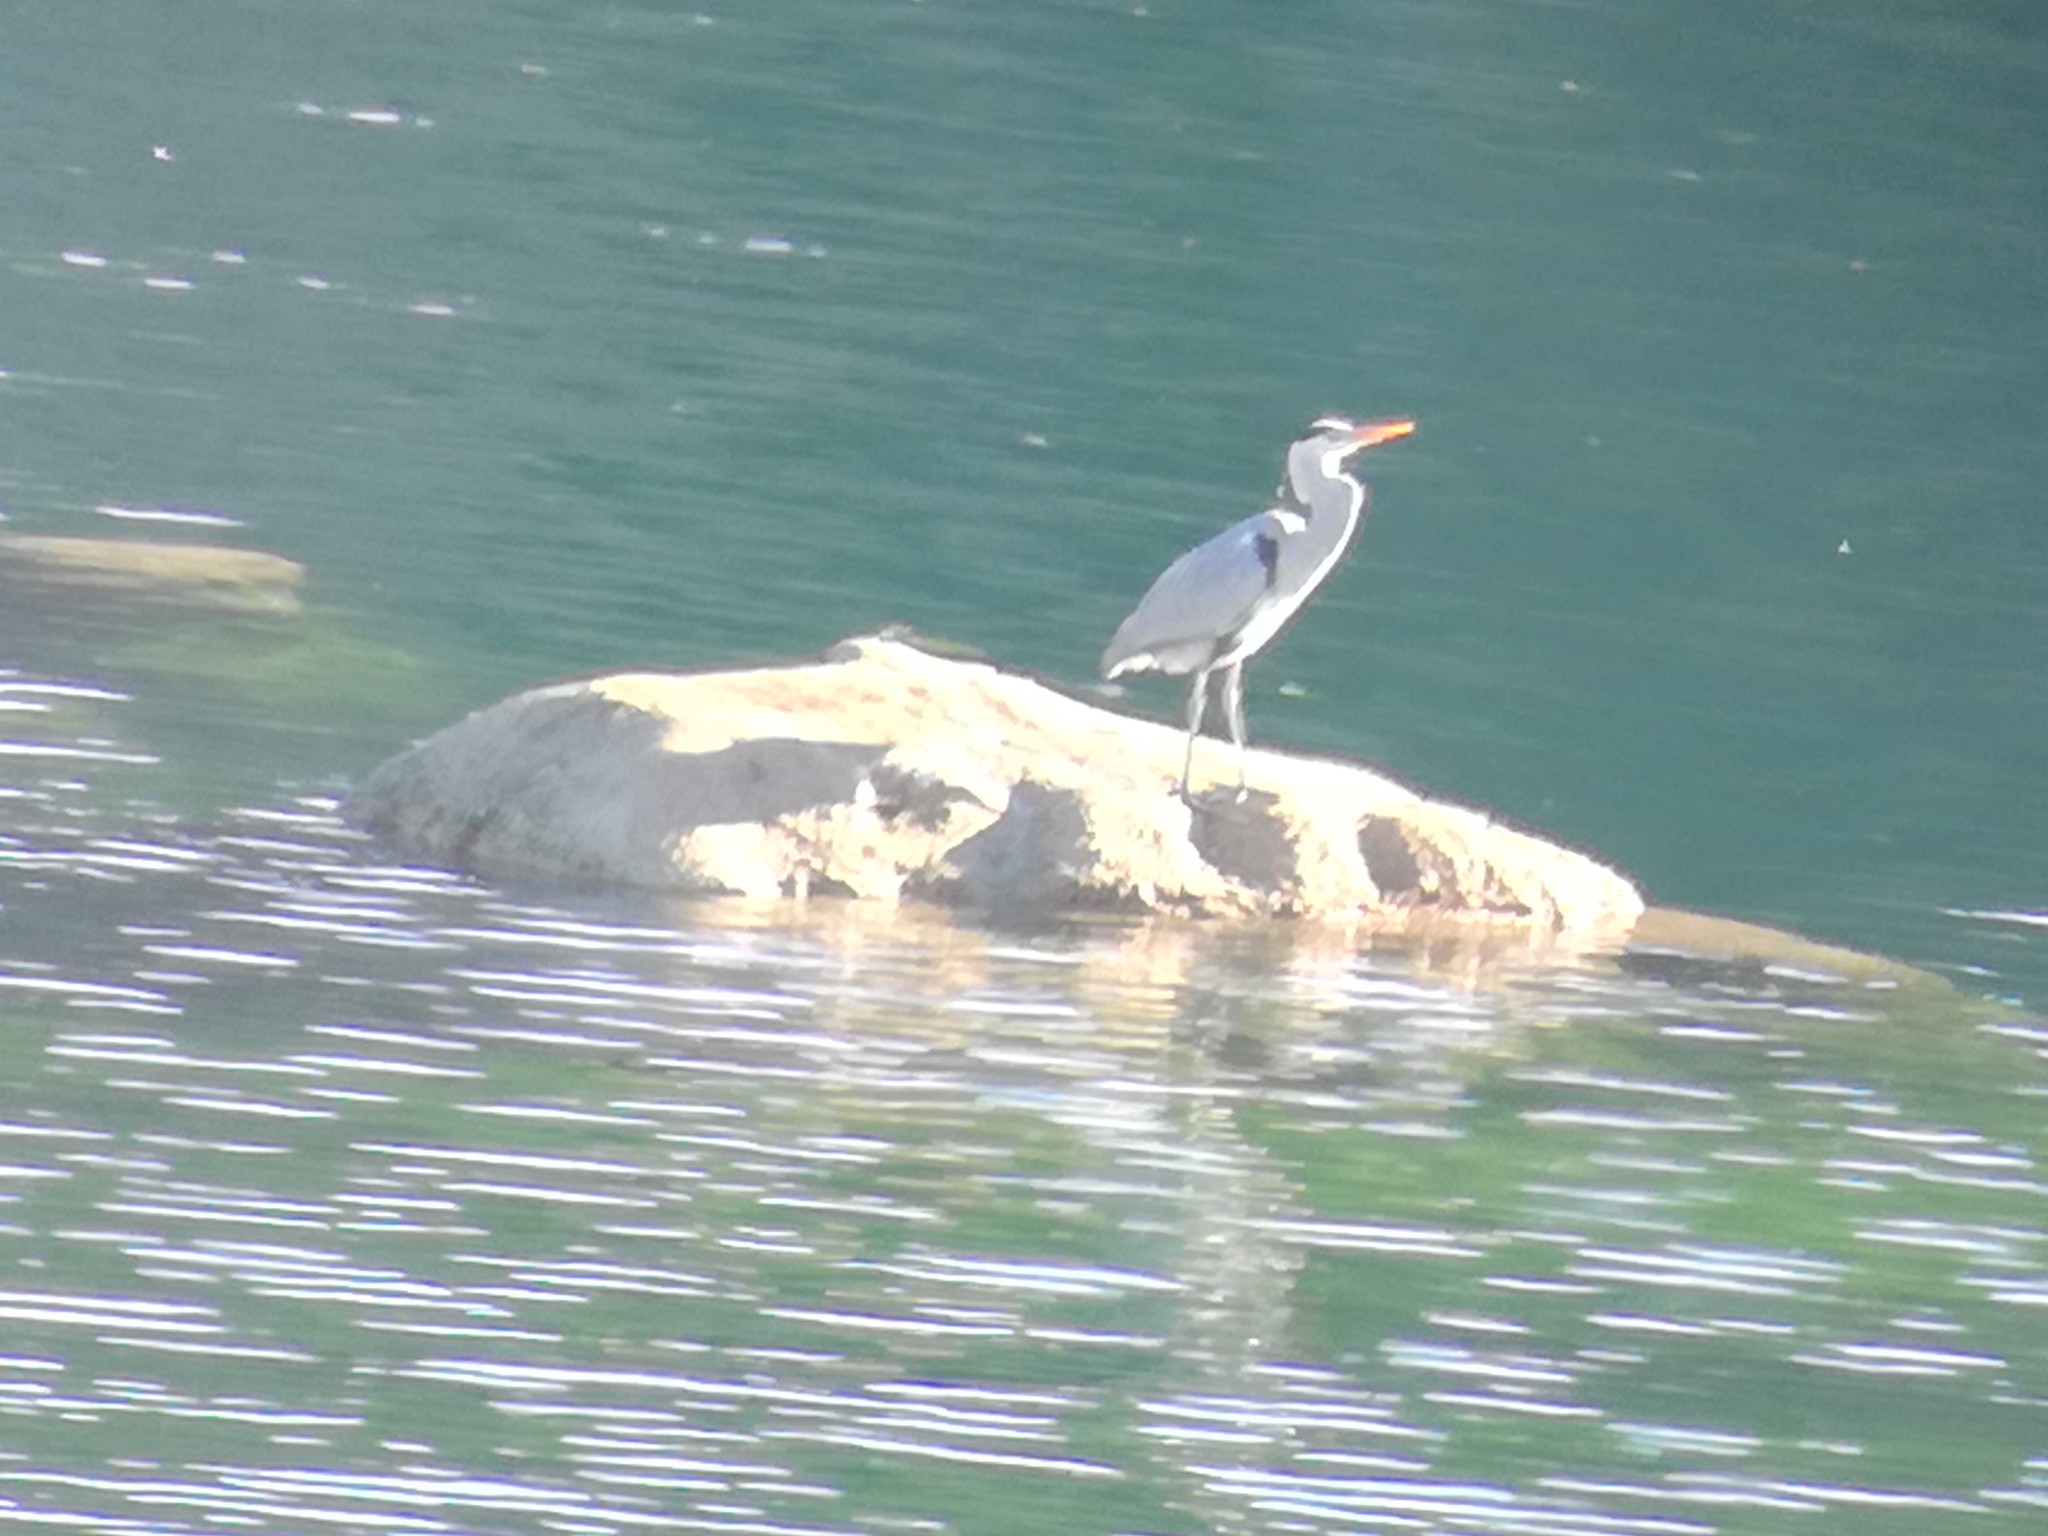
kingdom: Animalia
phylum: Chordata
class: Aves
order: Pelecaniformes
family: Ardeidae
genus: Ardea
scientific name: Ardea cinerea
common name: Grey heron
